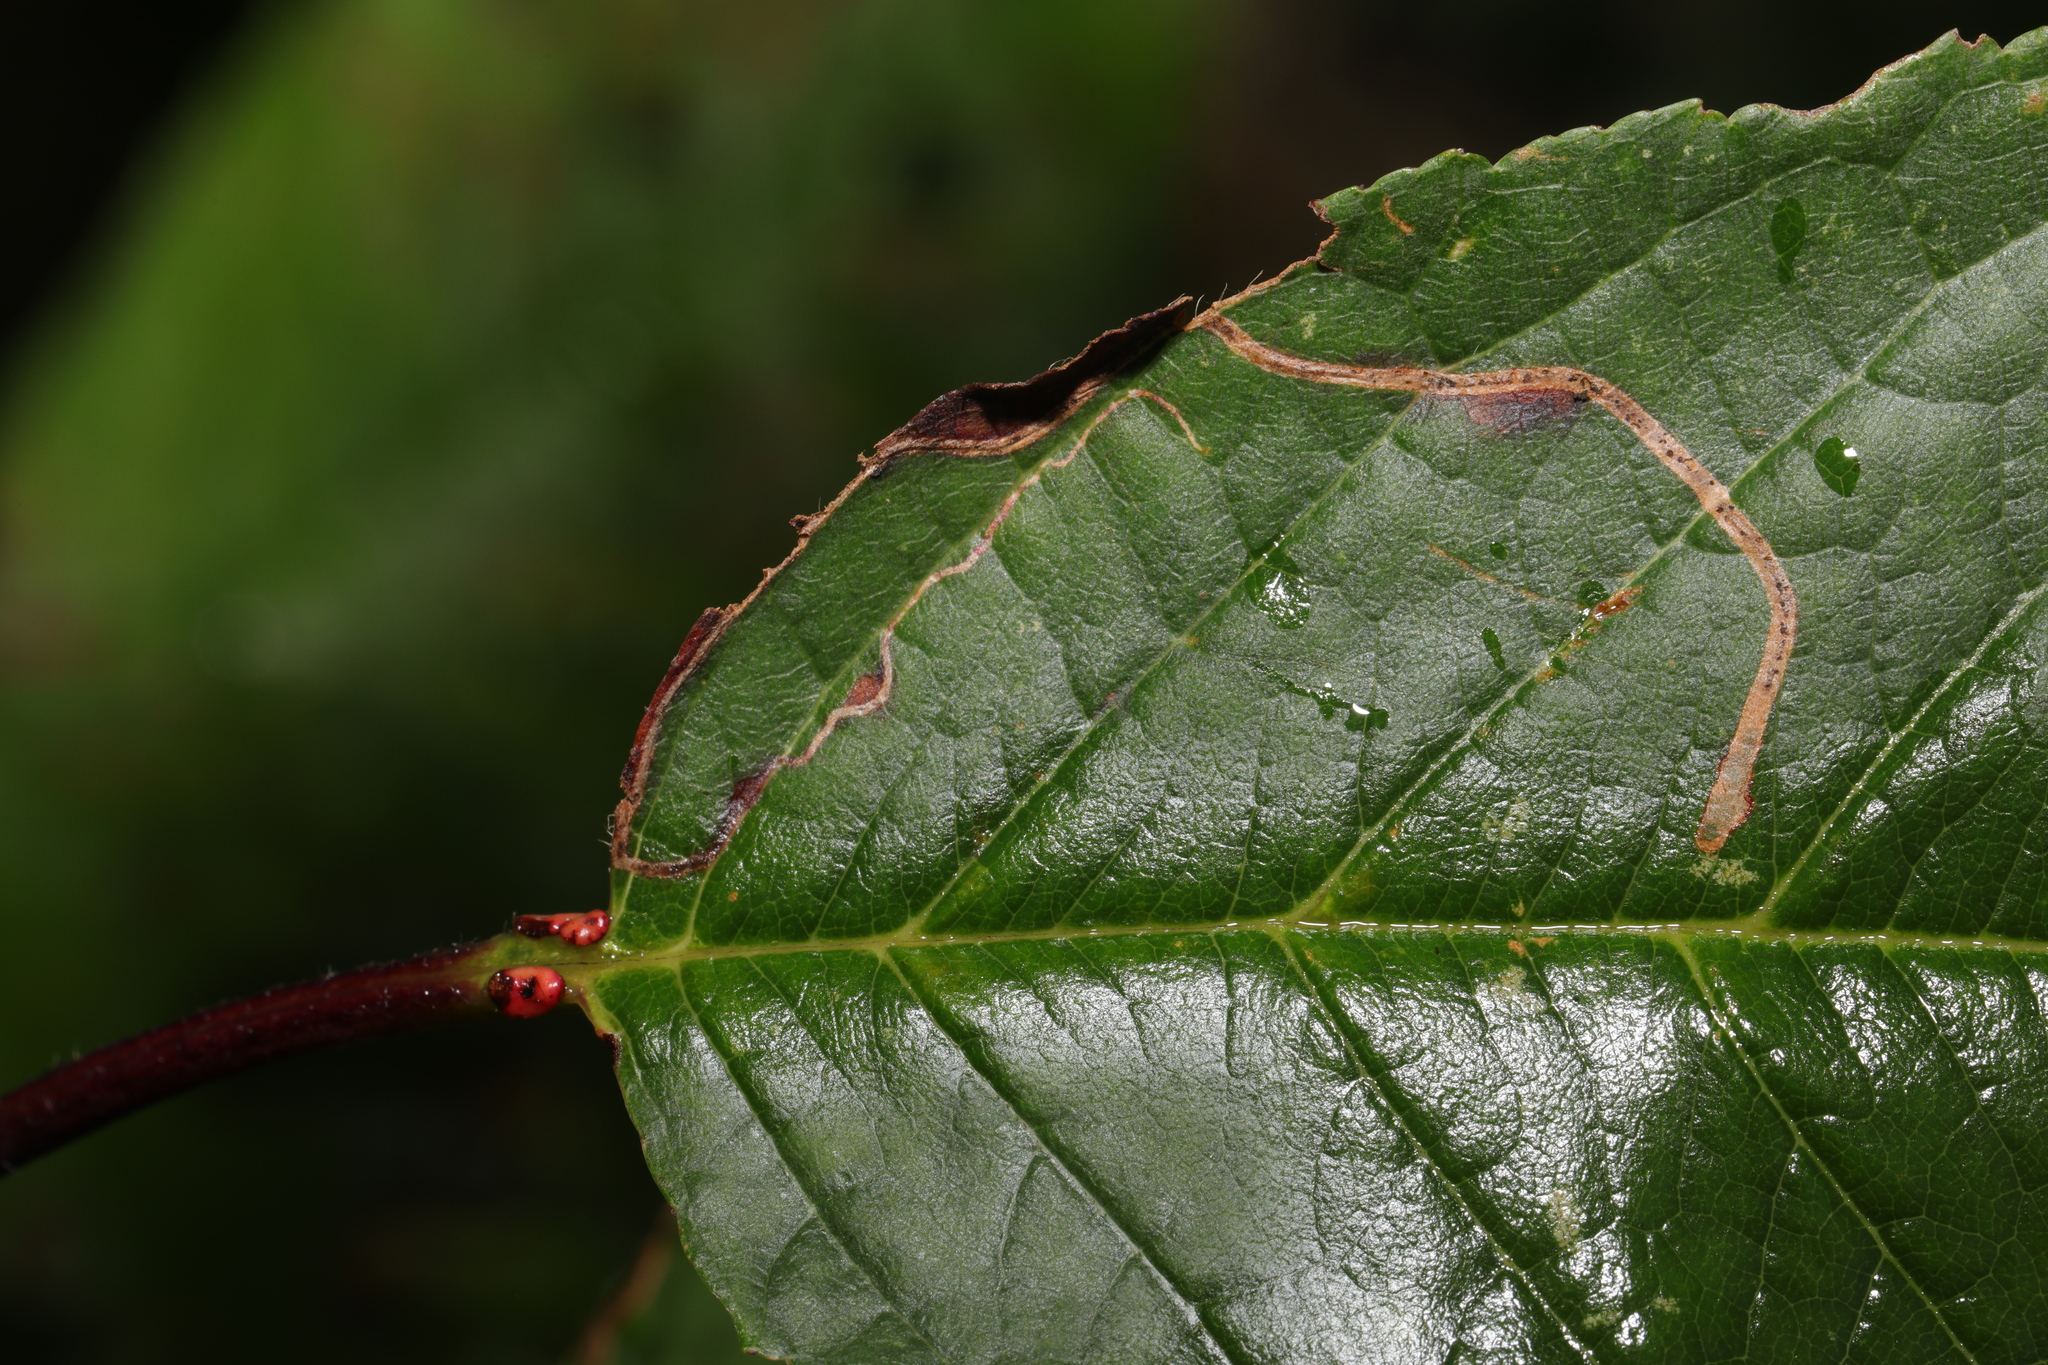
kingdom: Animalia
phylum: Arthropoda
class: Insecta
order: Lepidoptera
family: Lyonetiidae
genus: Lyonetia
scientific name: Lyonetia clerkella
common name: Apple leaf miner
